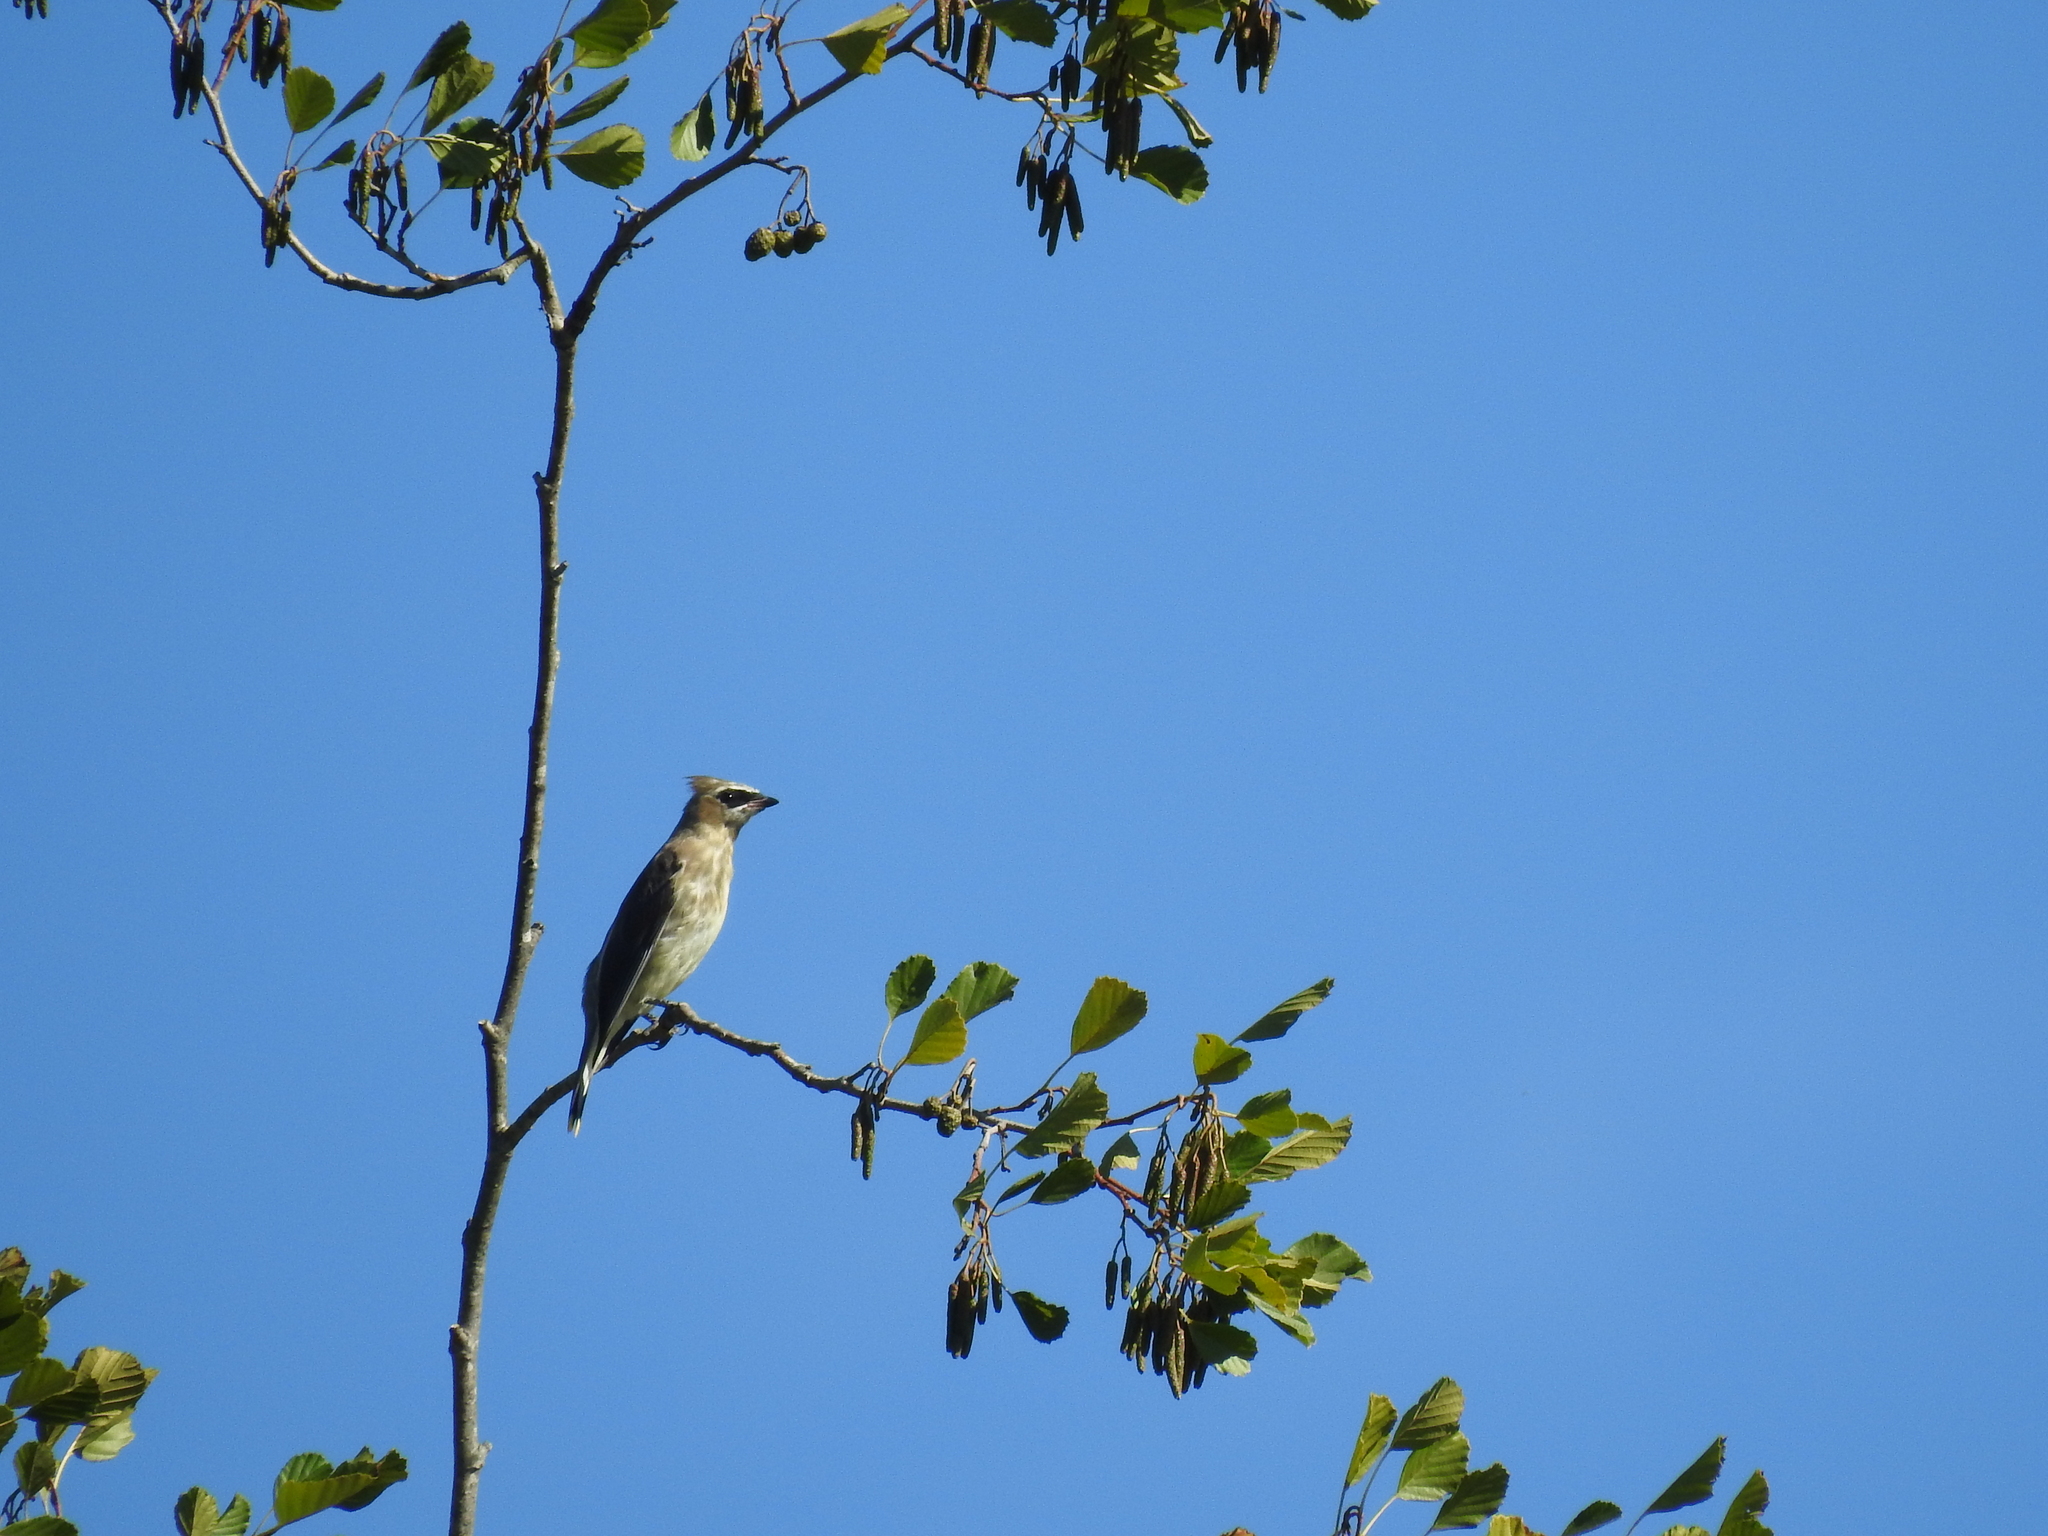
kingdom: Animalia
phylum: Chordata
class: Aves
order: Passeriformes
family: Bombycillidae
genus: Bombycilla
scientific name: Bombycilla cedrorum
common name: Cedar waxwing
